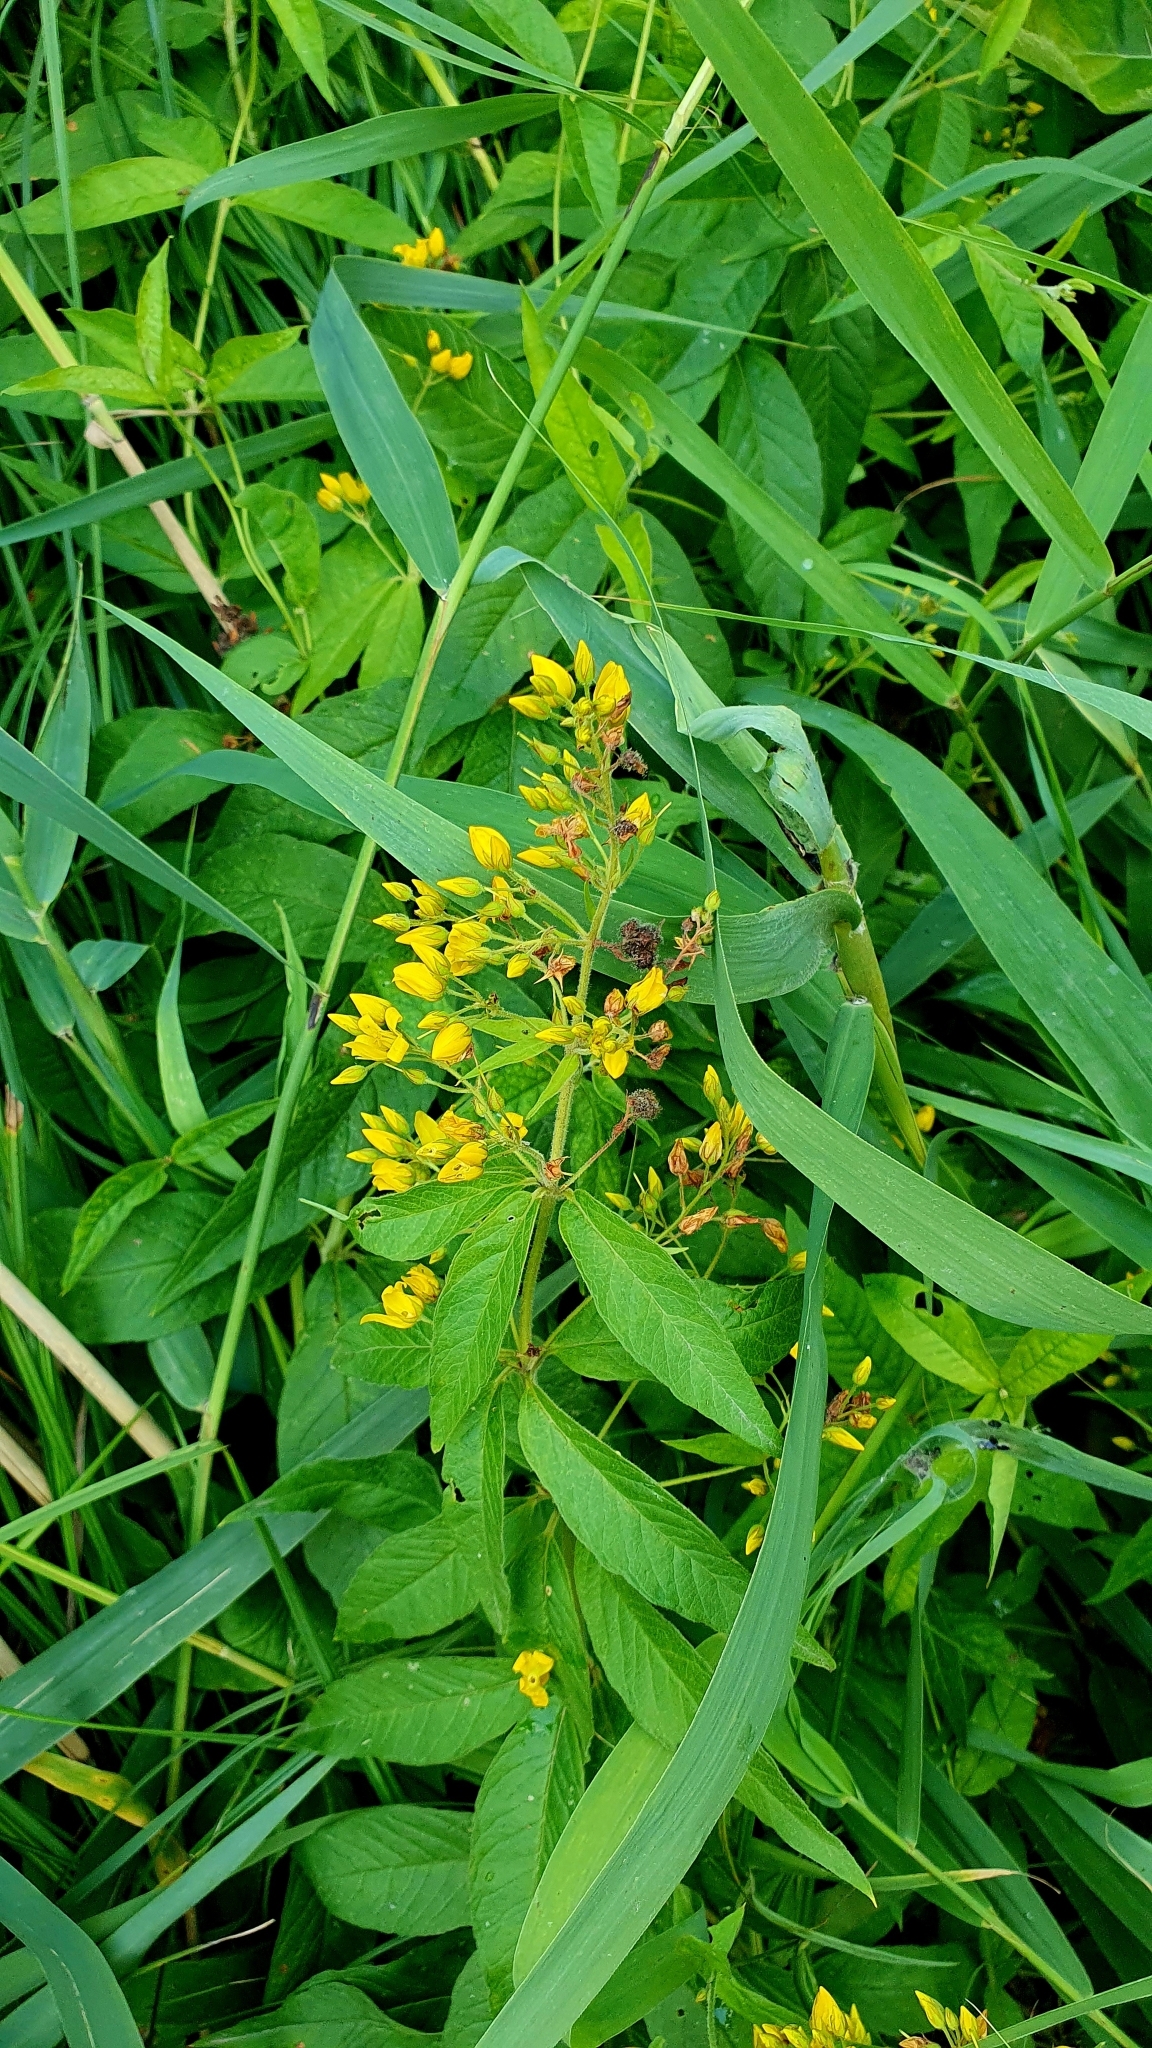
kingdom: Plantae
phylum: Tracheophyta
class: Magnoliopsida
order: Ericales
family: Primulaceae
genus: Lysimachia
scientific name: Lysimachia vulgaris
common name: Yellow loosestrife
